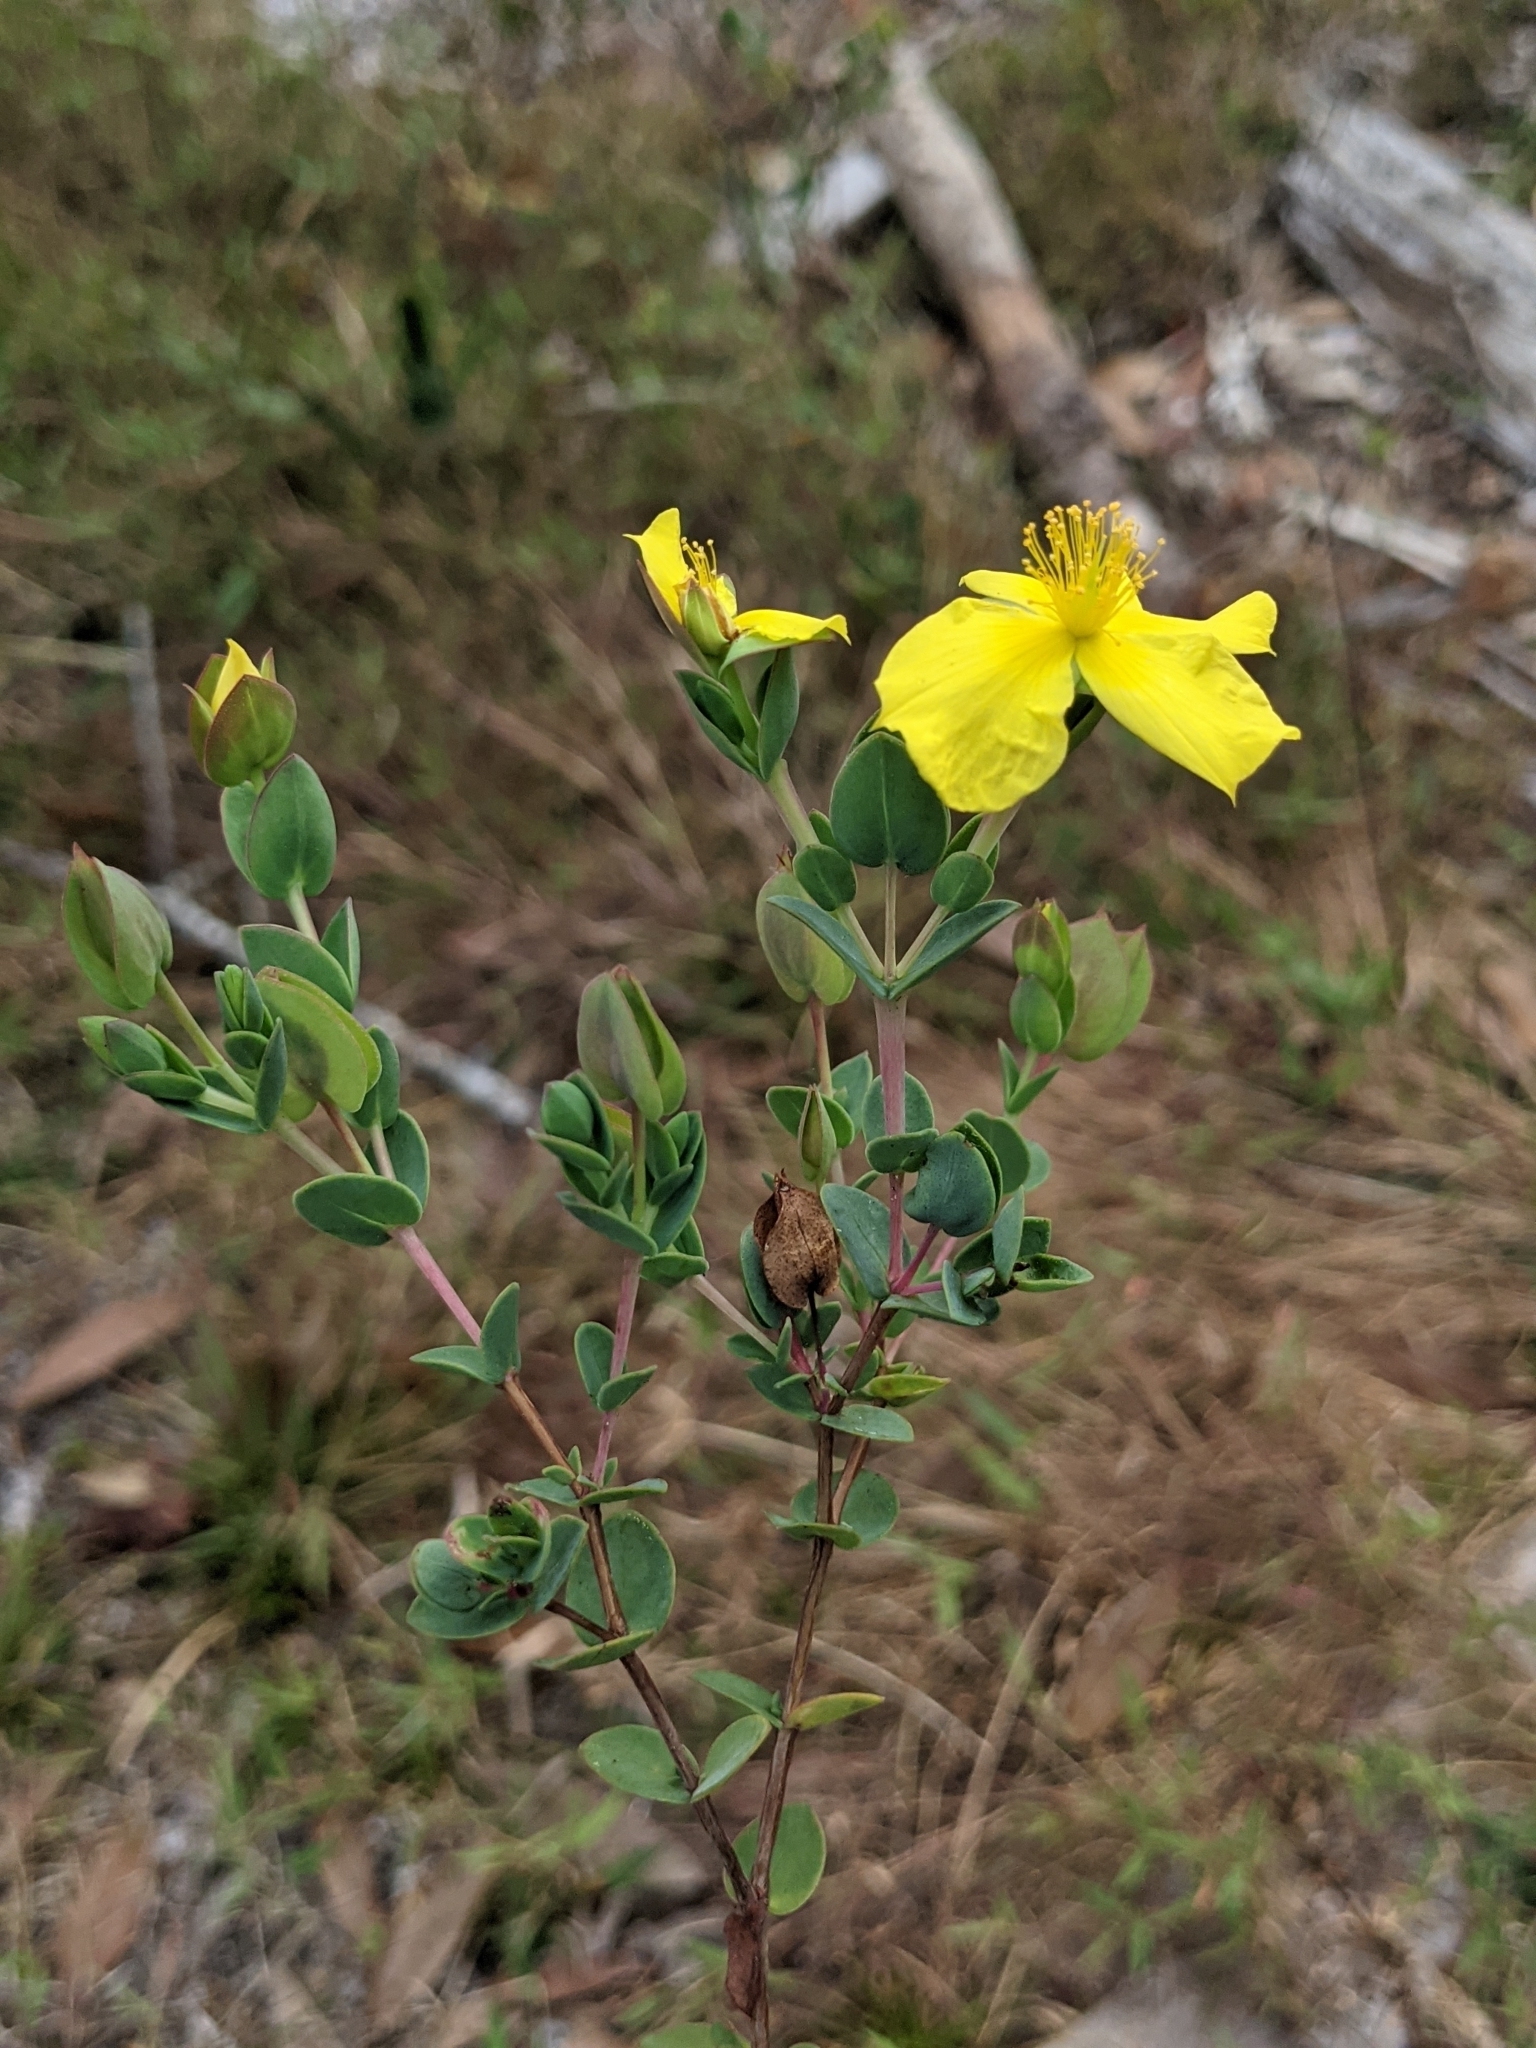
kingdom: Plantae
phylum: Tracheophyta
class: Magnoliopsida
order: Malpighiales
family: Hypericaceae
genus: Hypericum
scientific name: Hypericum tetrapetalum
